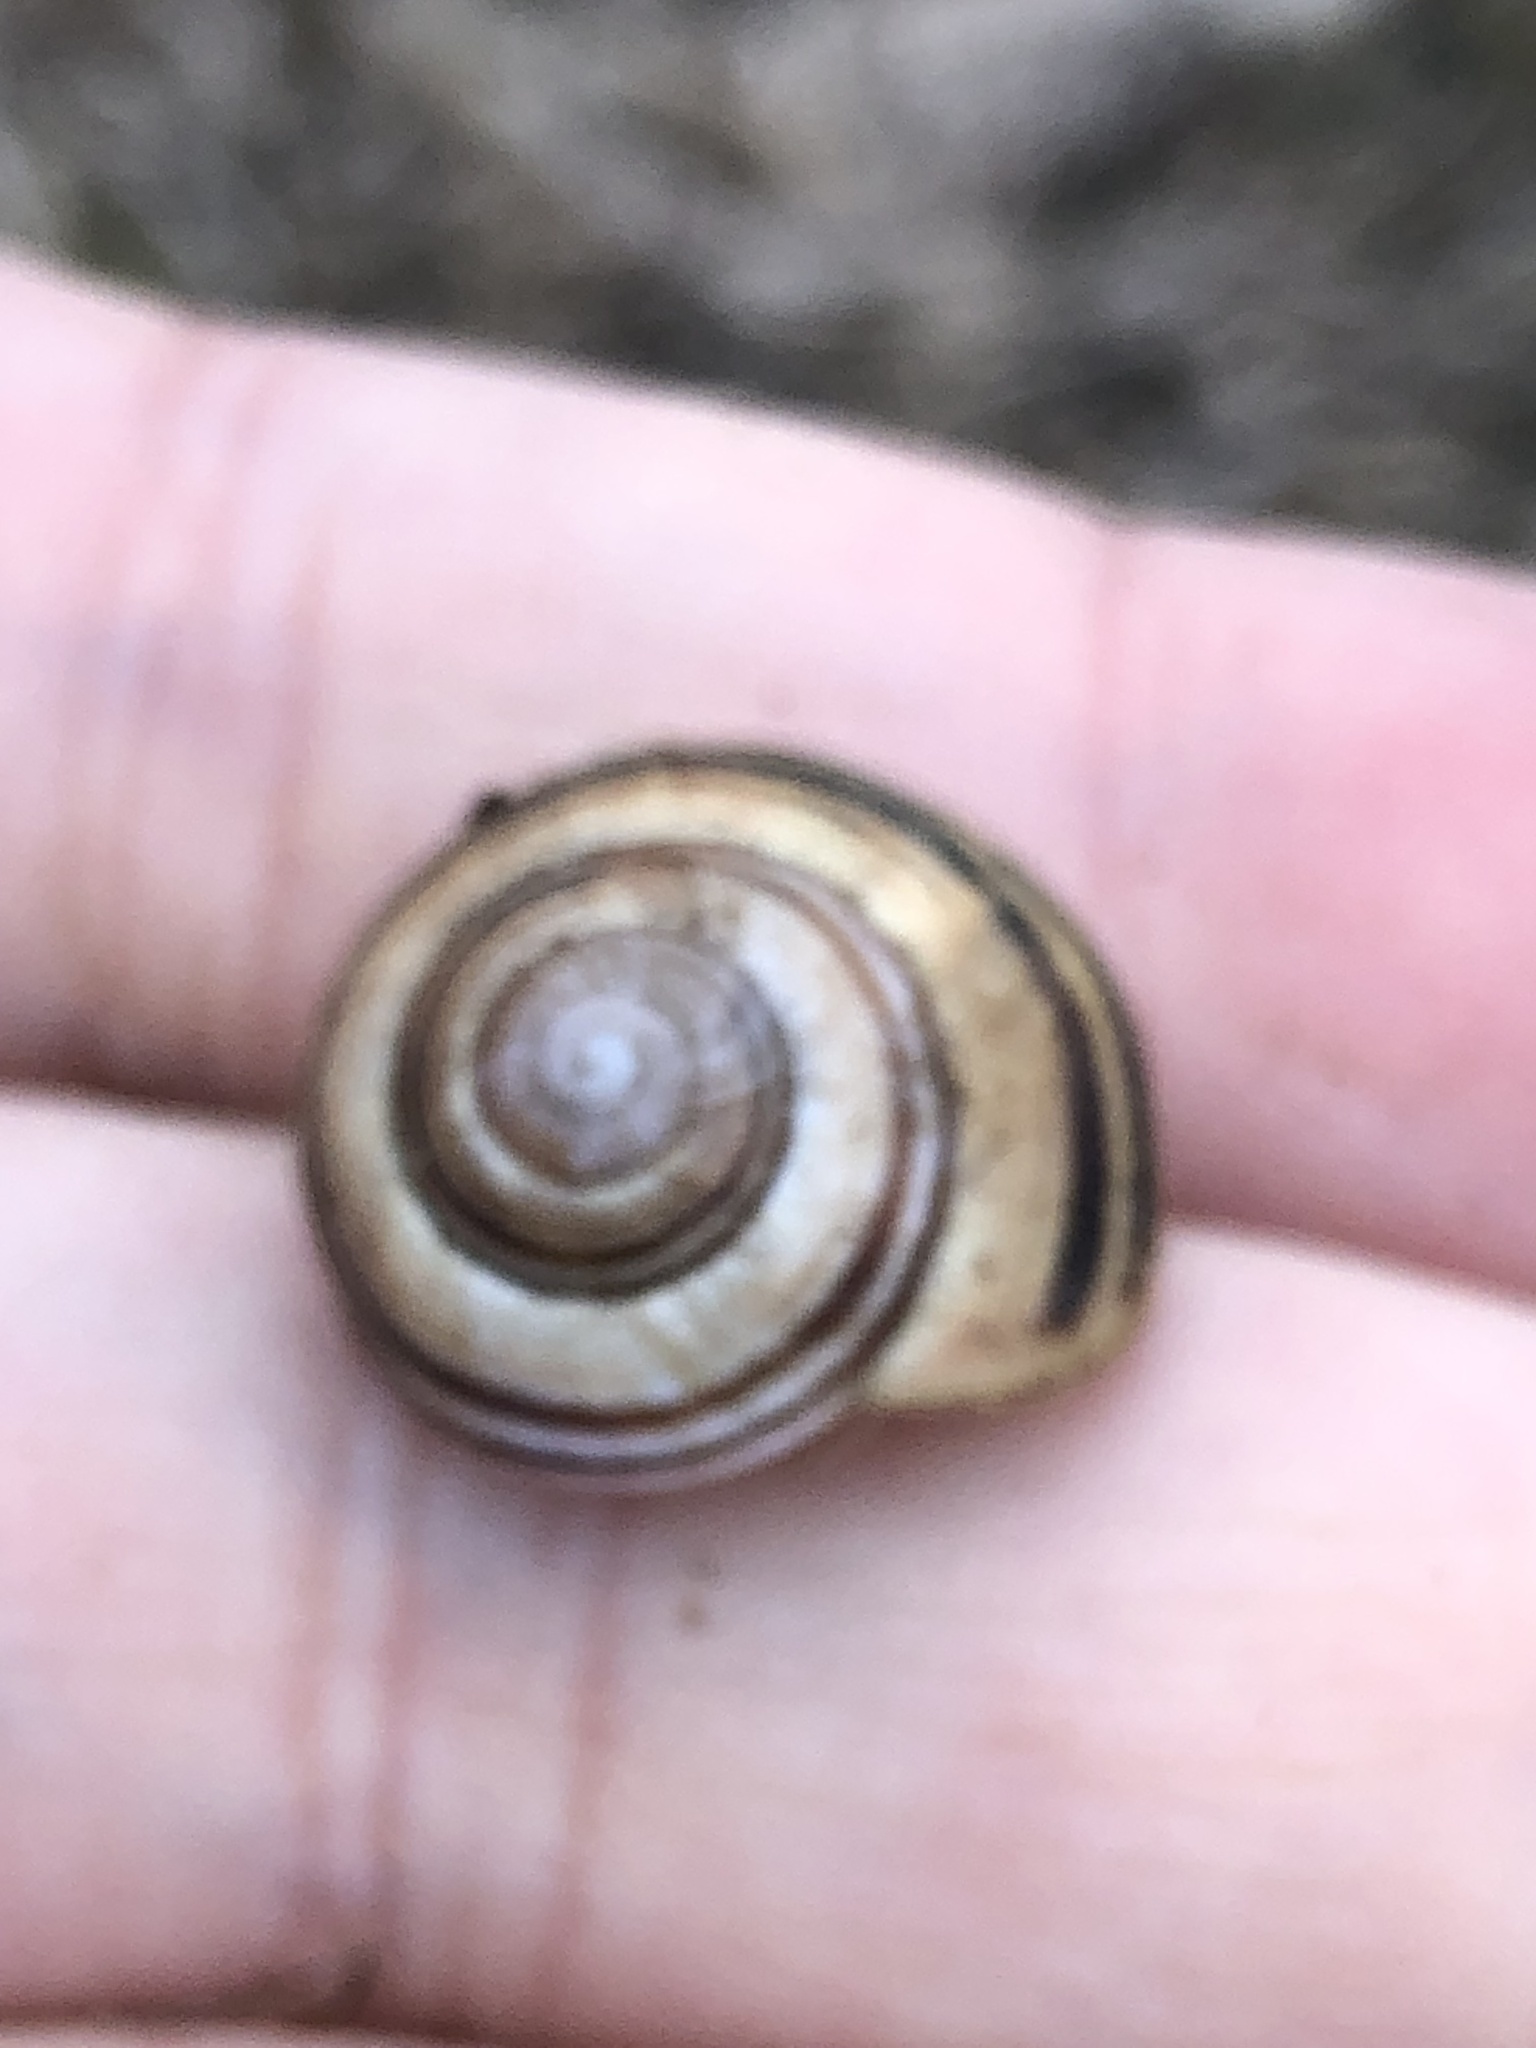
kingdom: Animalia
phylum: Mollusca
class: Gastropoda
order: Stylommatophora
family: Helicidae
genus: Cepaea
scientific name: Cepaea nemoralis
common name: Grovesnail
